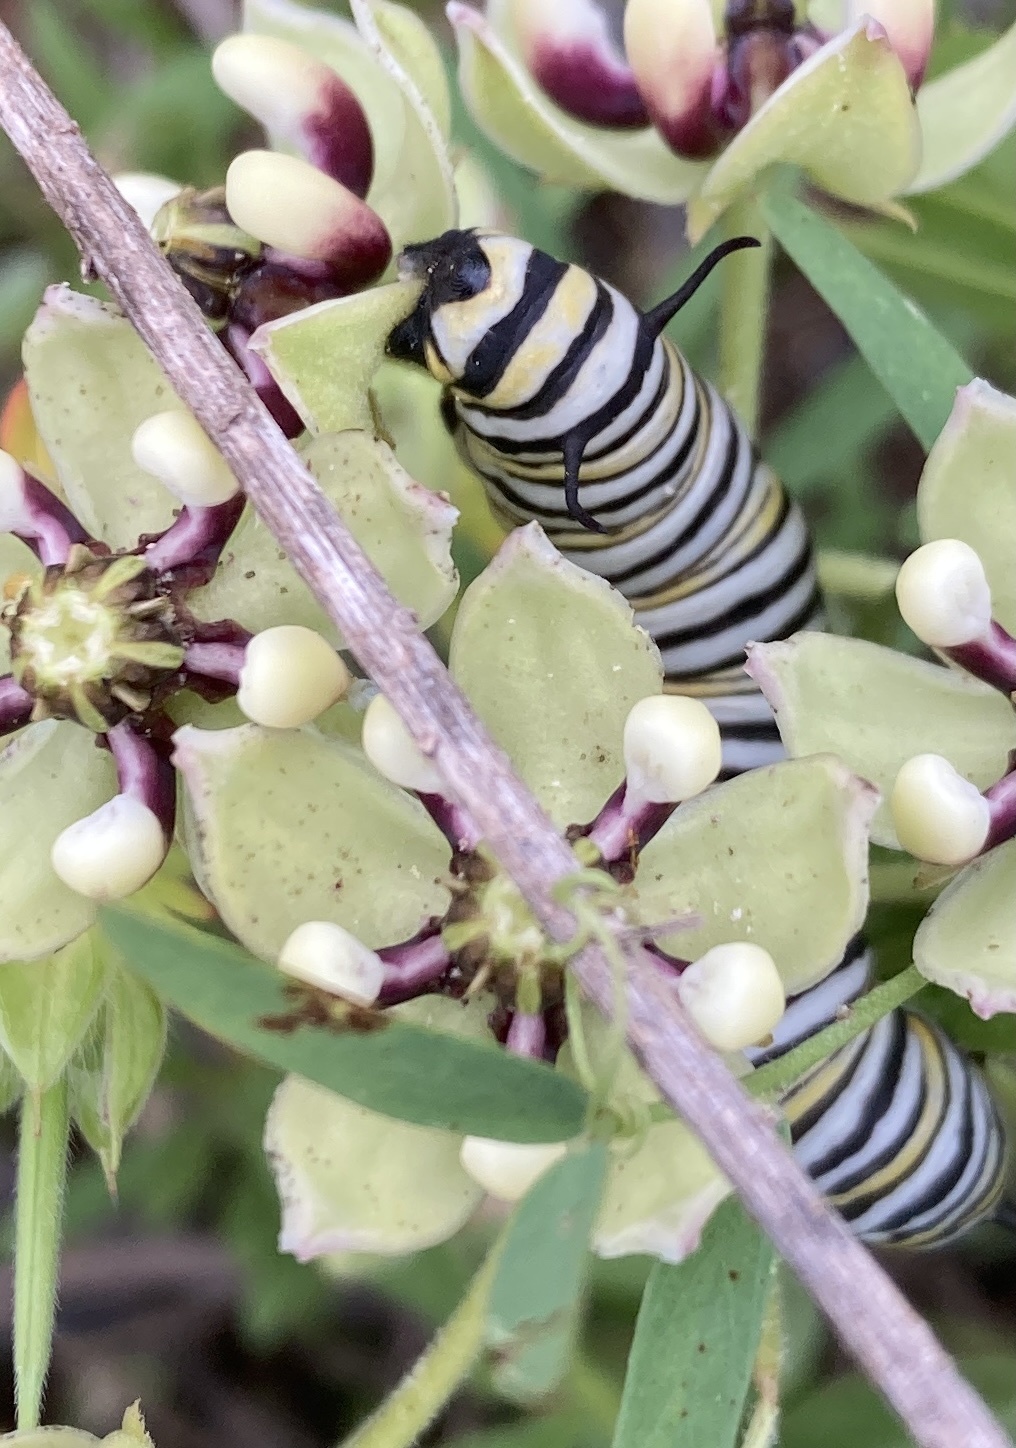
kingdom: Animalia
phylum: Arthropoda
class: Insecta
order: Lepidoptera
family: Nymphalidae
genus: Danaus
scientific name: Danaus plexippus
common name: Monarch
